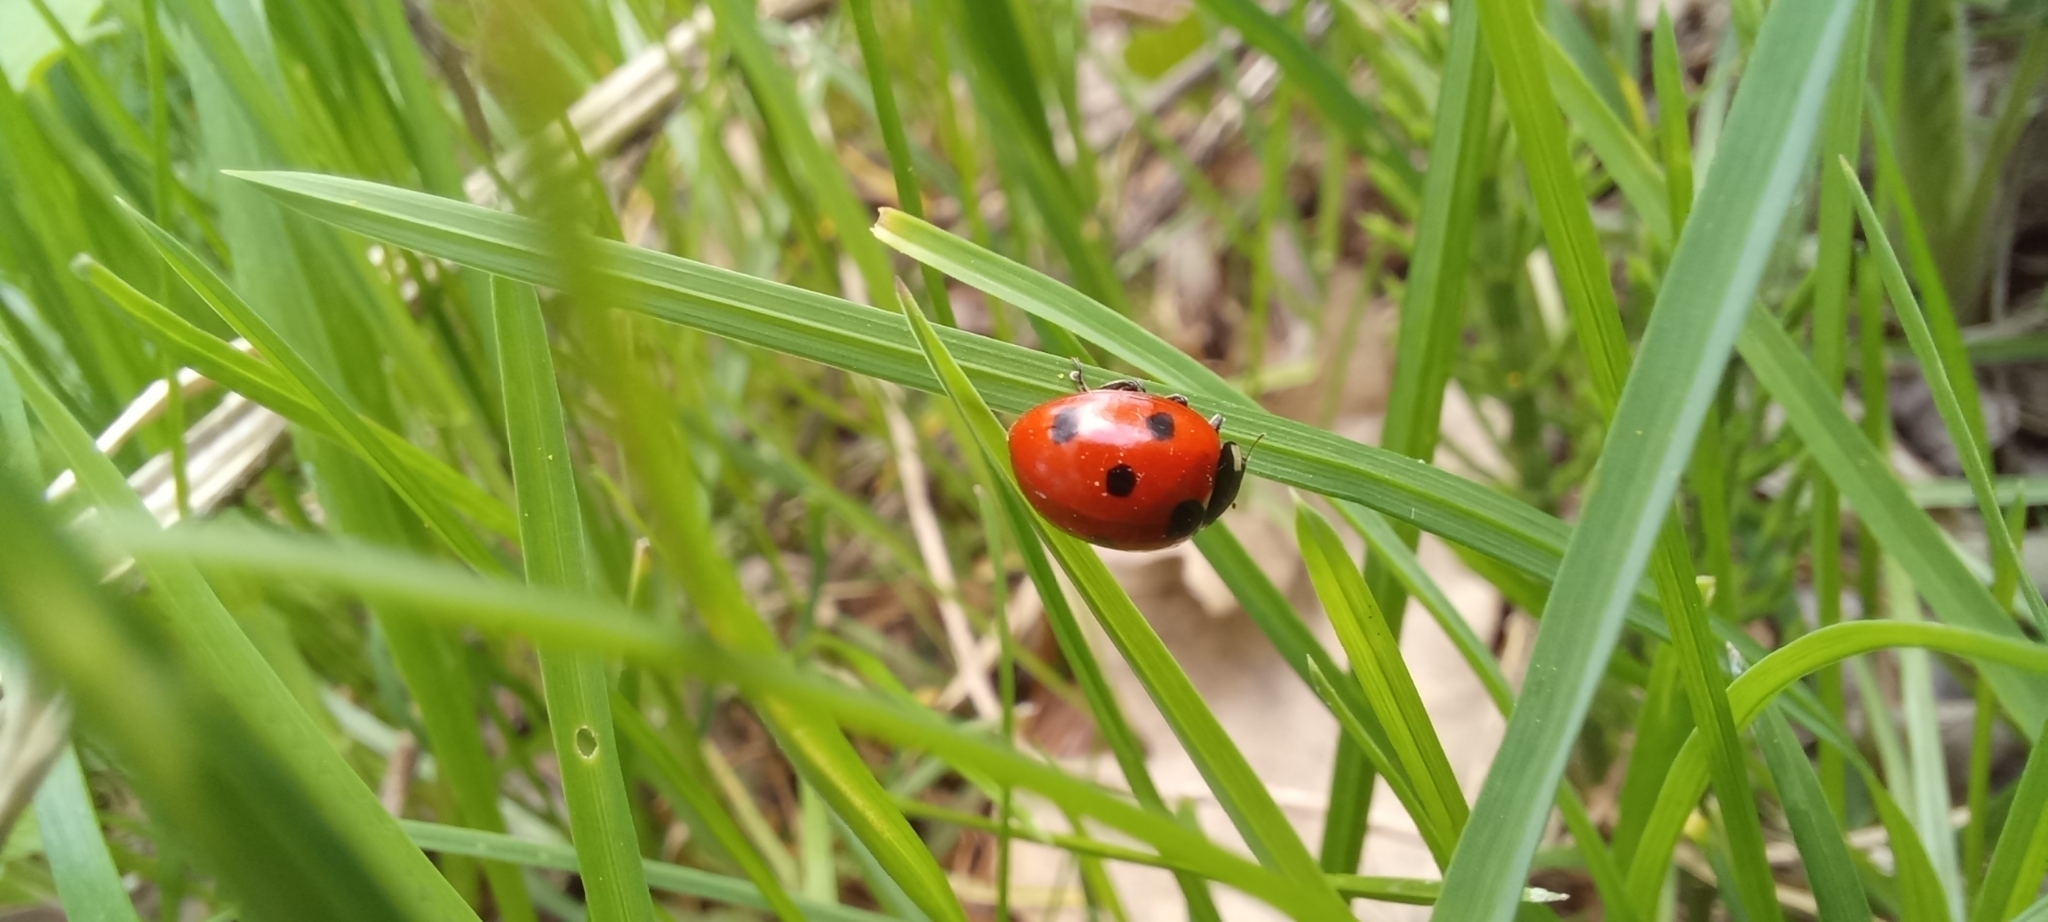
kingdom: Animalia
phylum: Arthropoda
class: Insecta
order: Coleoptera
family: Coccinellidae
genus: Coccinella
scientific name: Coccinella septempunctata
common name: Sevenspotted lady beetle
